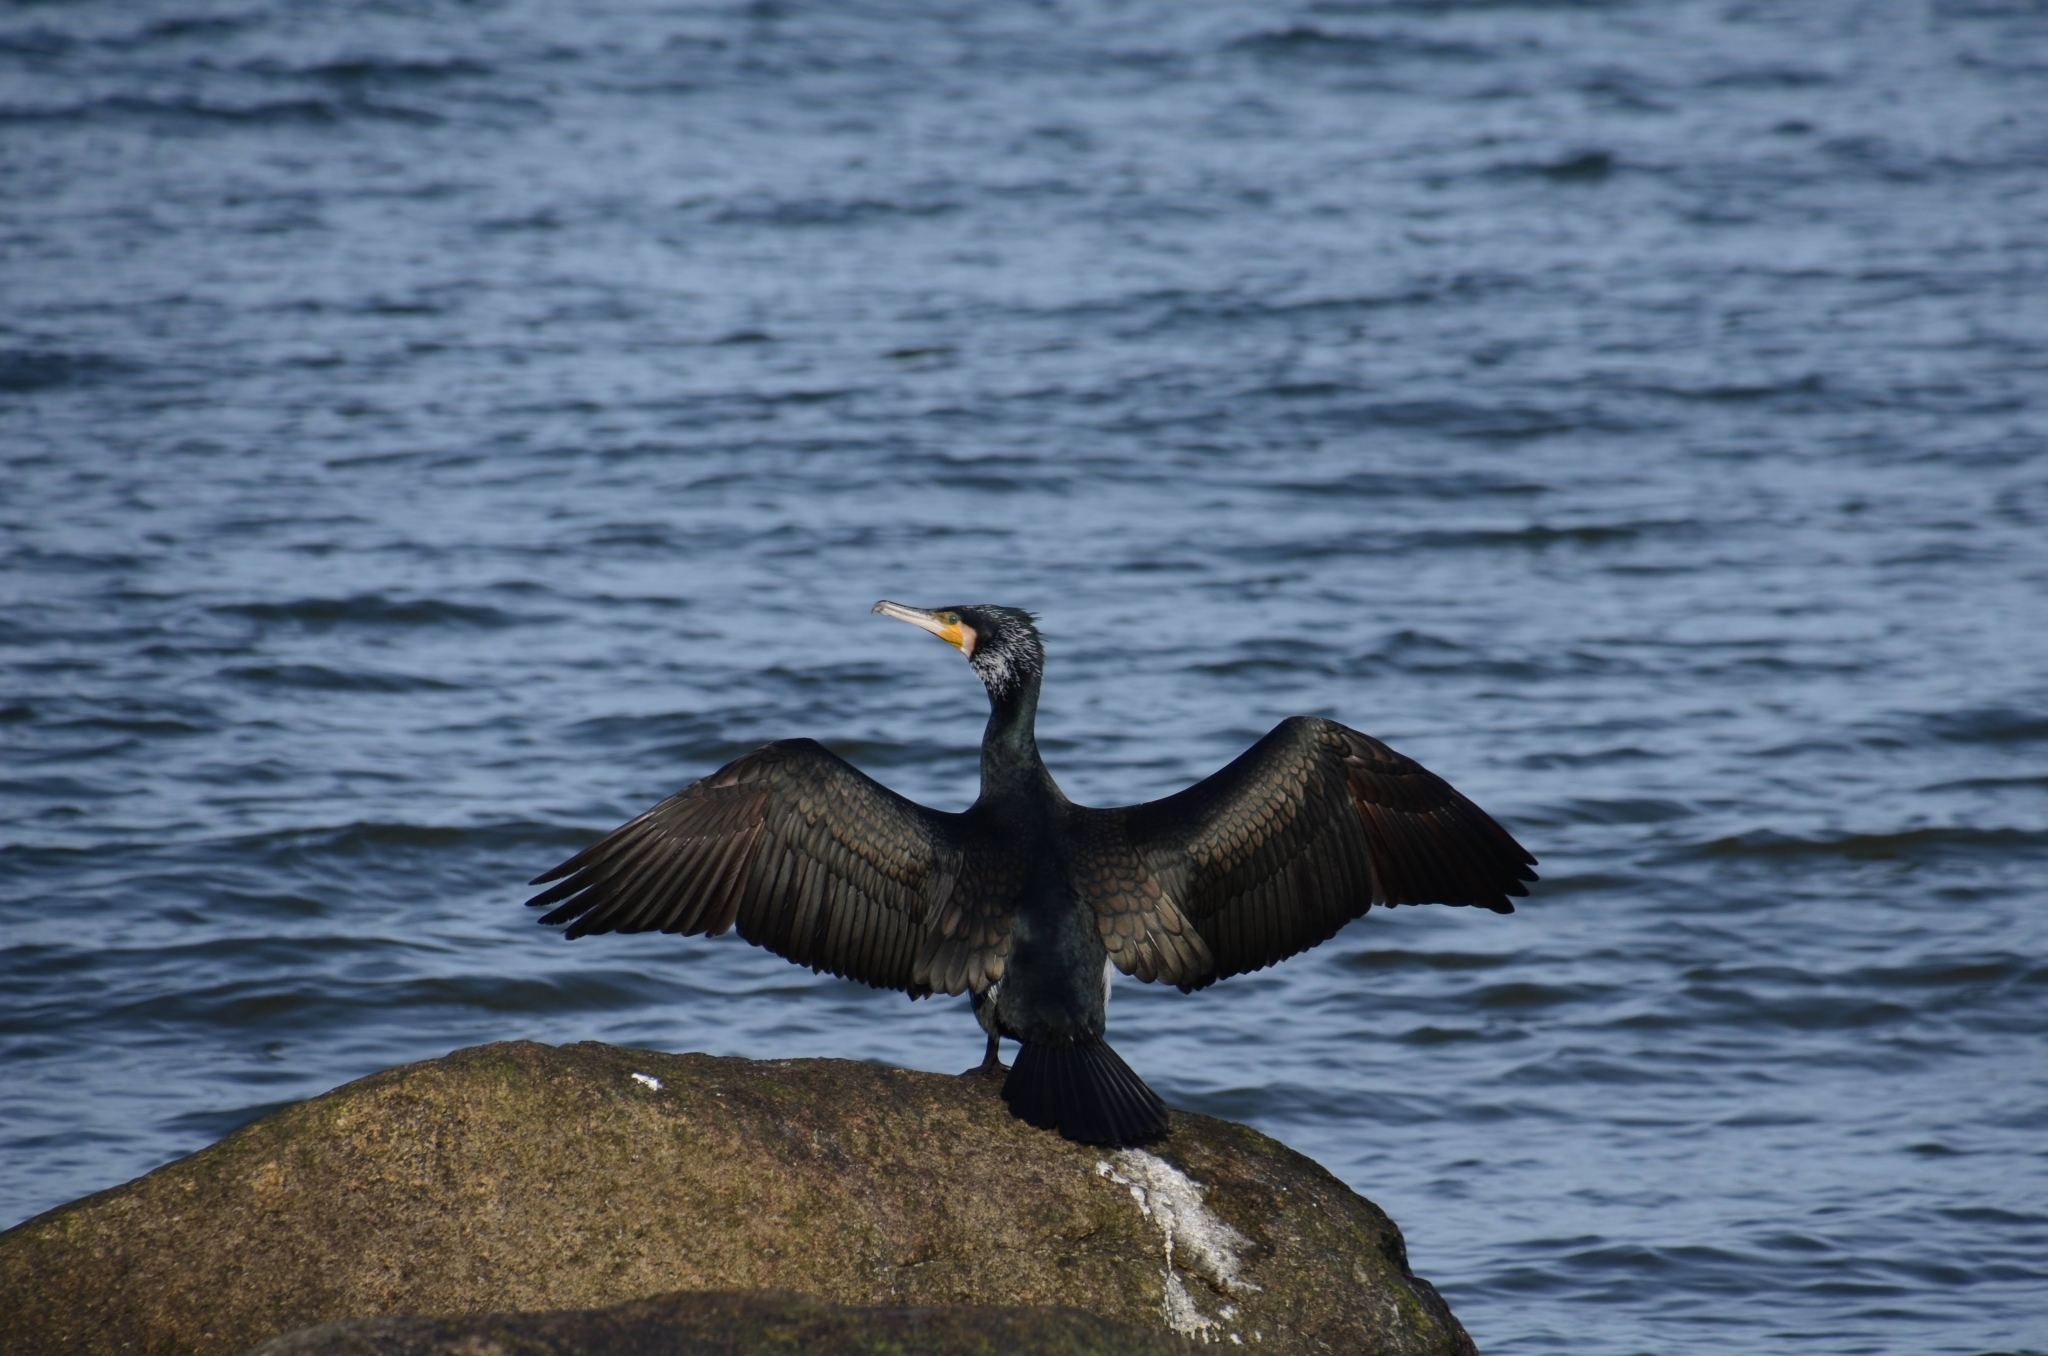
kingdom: Animalia
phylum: Chordata
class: Aves
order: Suliformes
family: Phalacrocoracidae
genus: Phalacrocorax
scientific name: Phalacrocorax carbo
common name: Great cormorant
